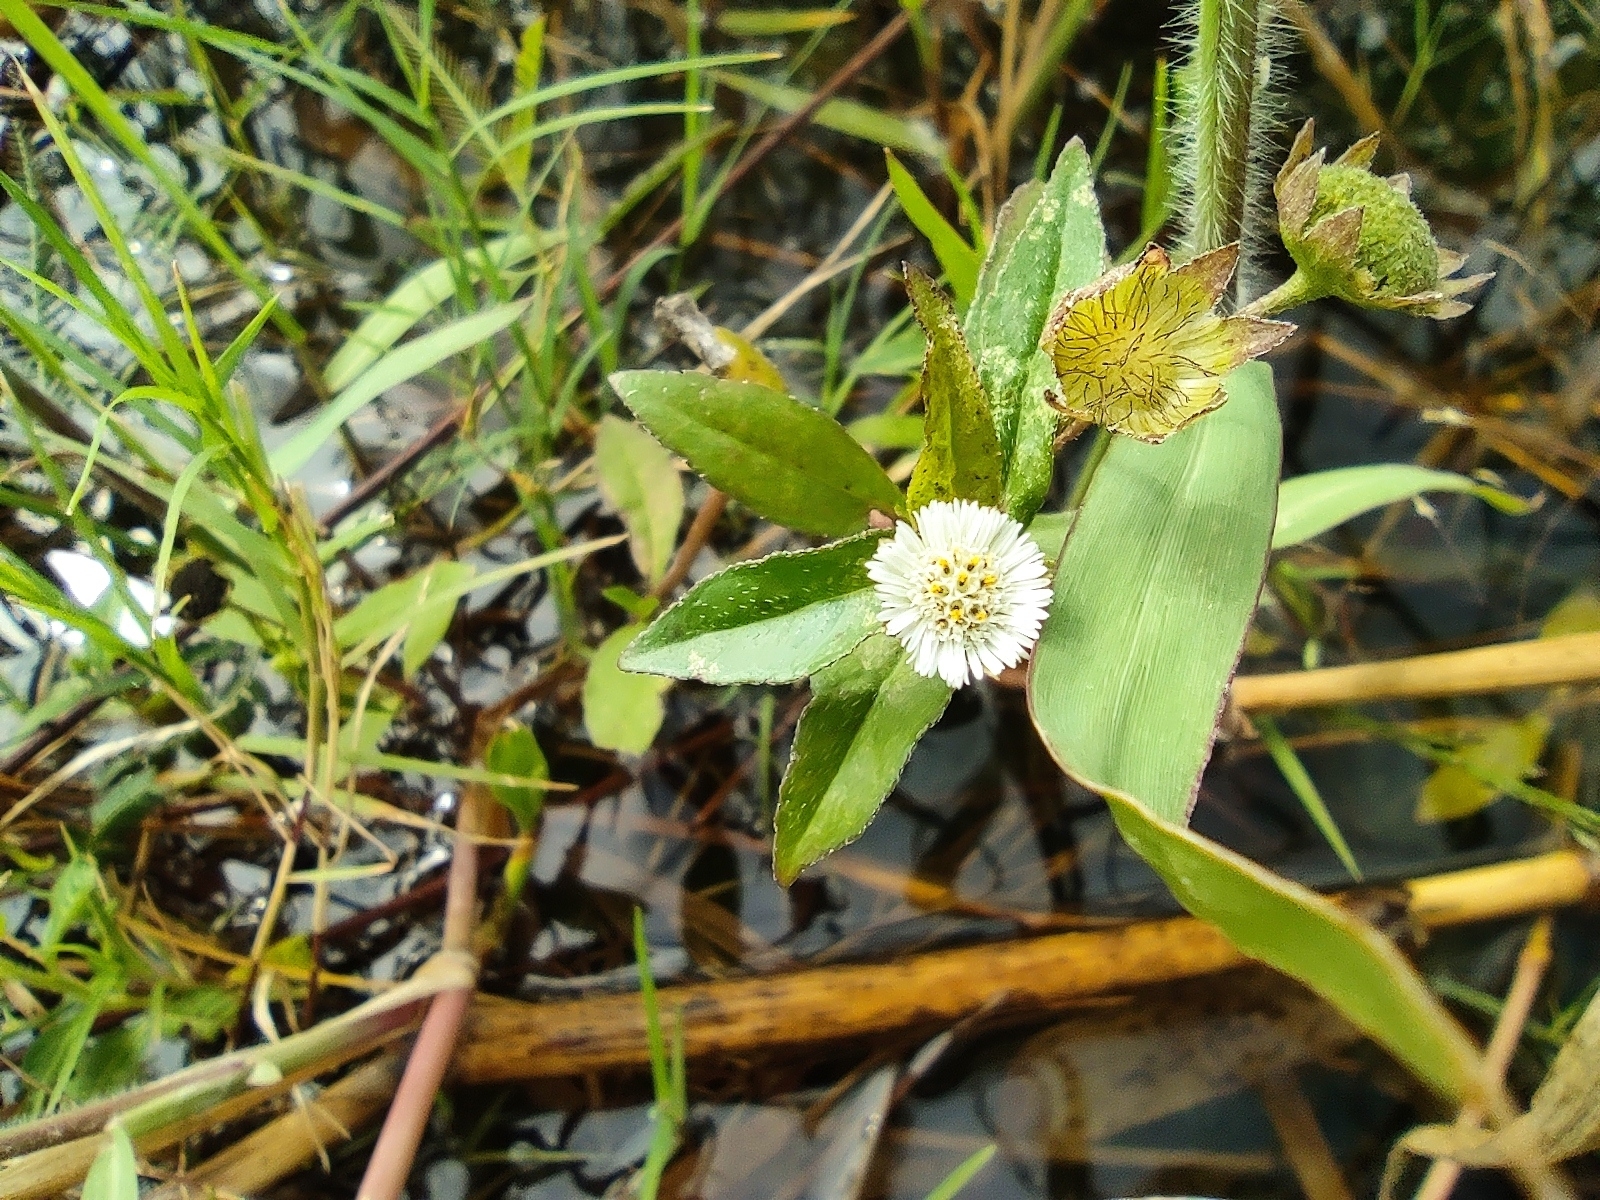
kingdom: Plantae
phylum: Tracheophyta
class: Magnoliopsida
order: Asterales
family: Asteraceae
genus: Eclipta
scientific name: Eclipta prostrata
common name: False daisy
